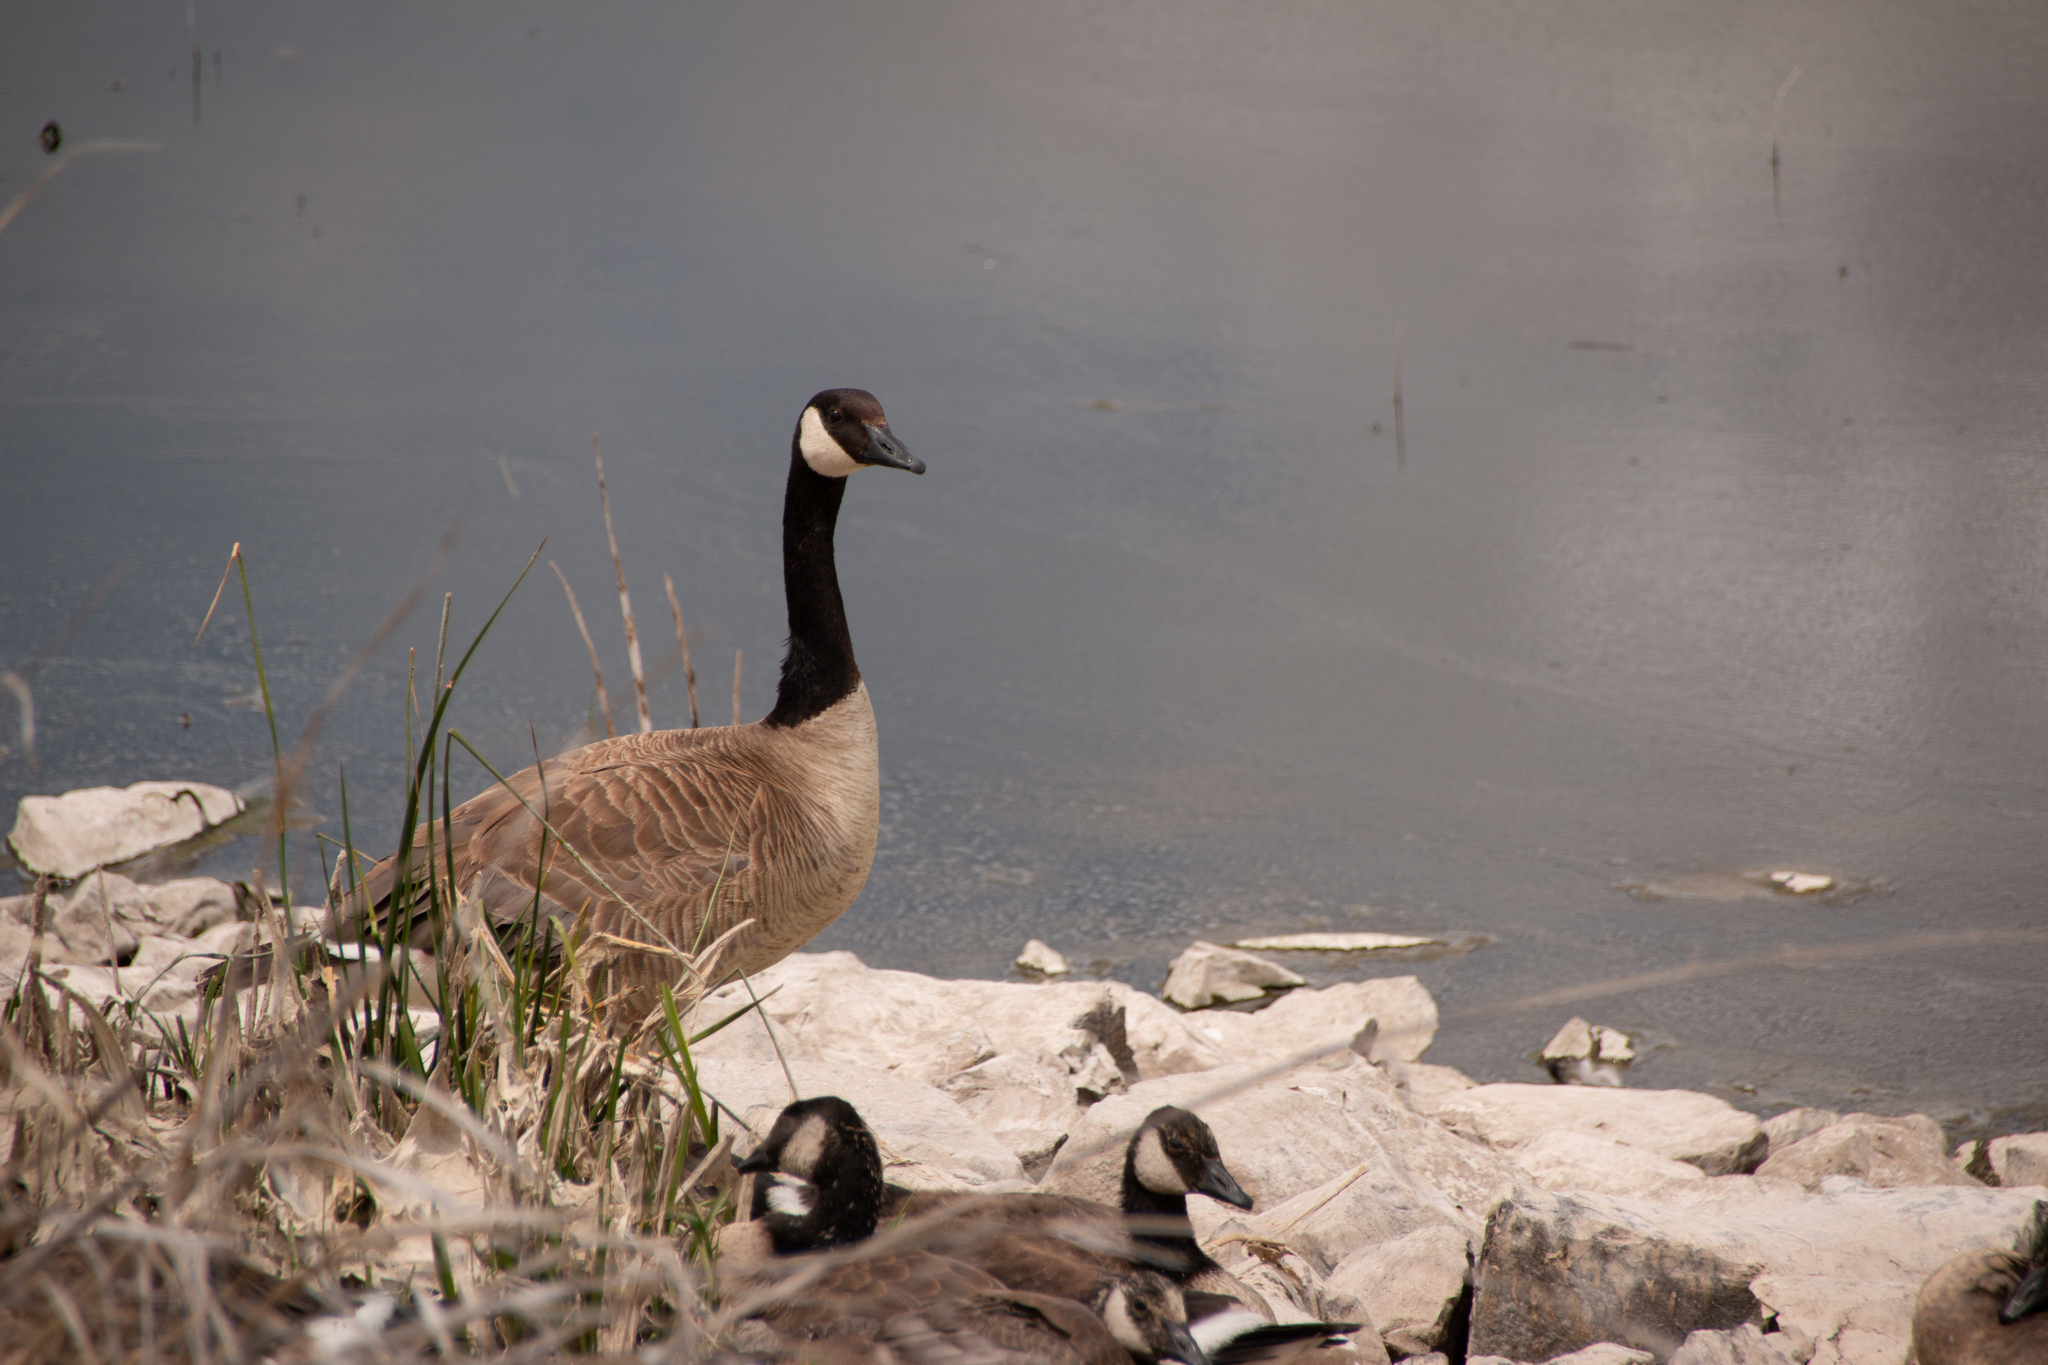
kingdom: Animalia
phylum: Chordata
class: Aves
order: Anseriformes
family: Anatidae
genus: Branta
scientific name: Branta canadensis
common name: Canada goose
